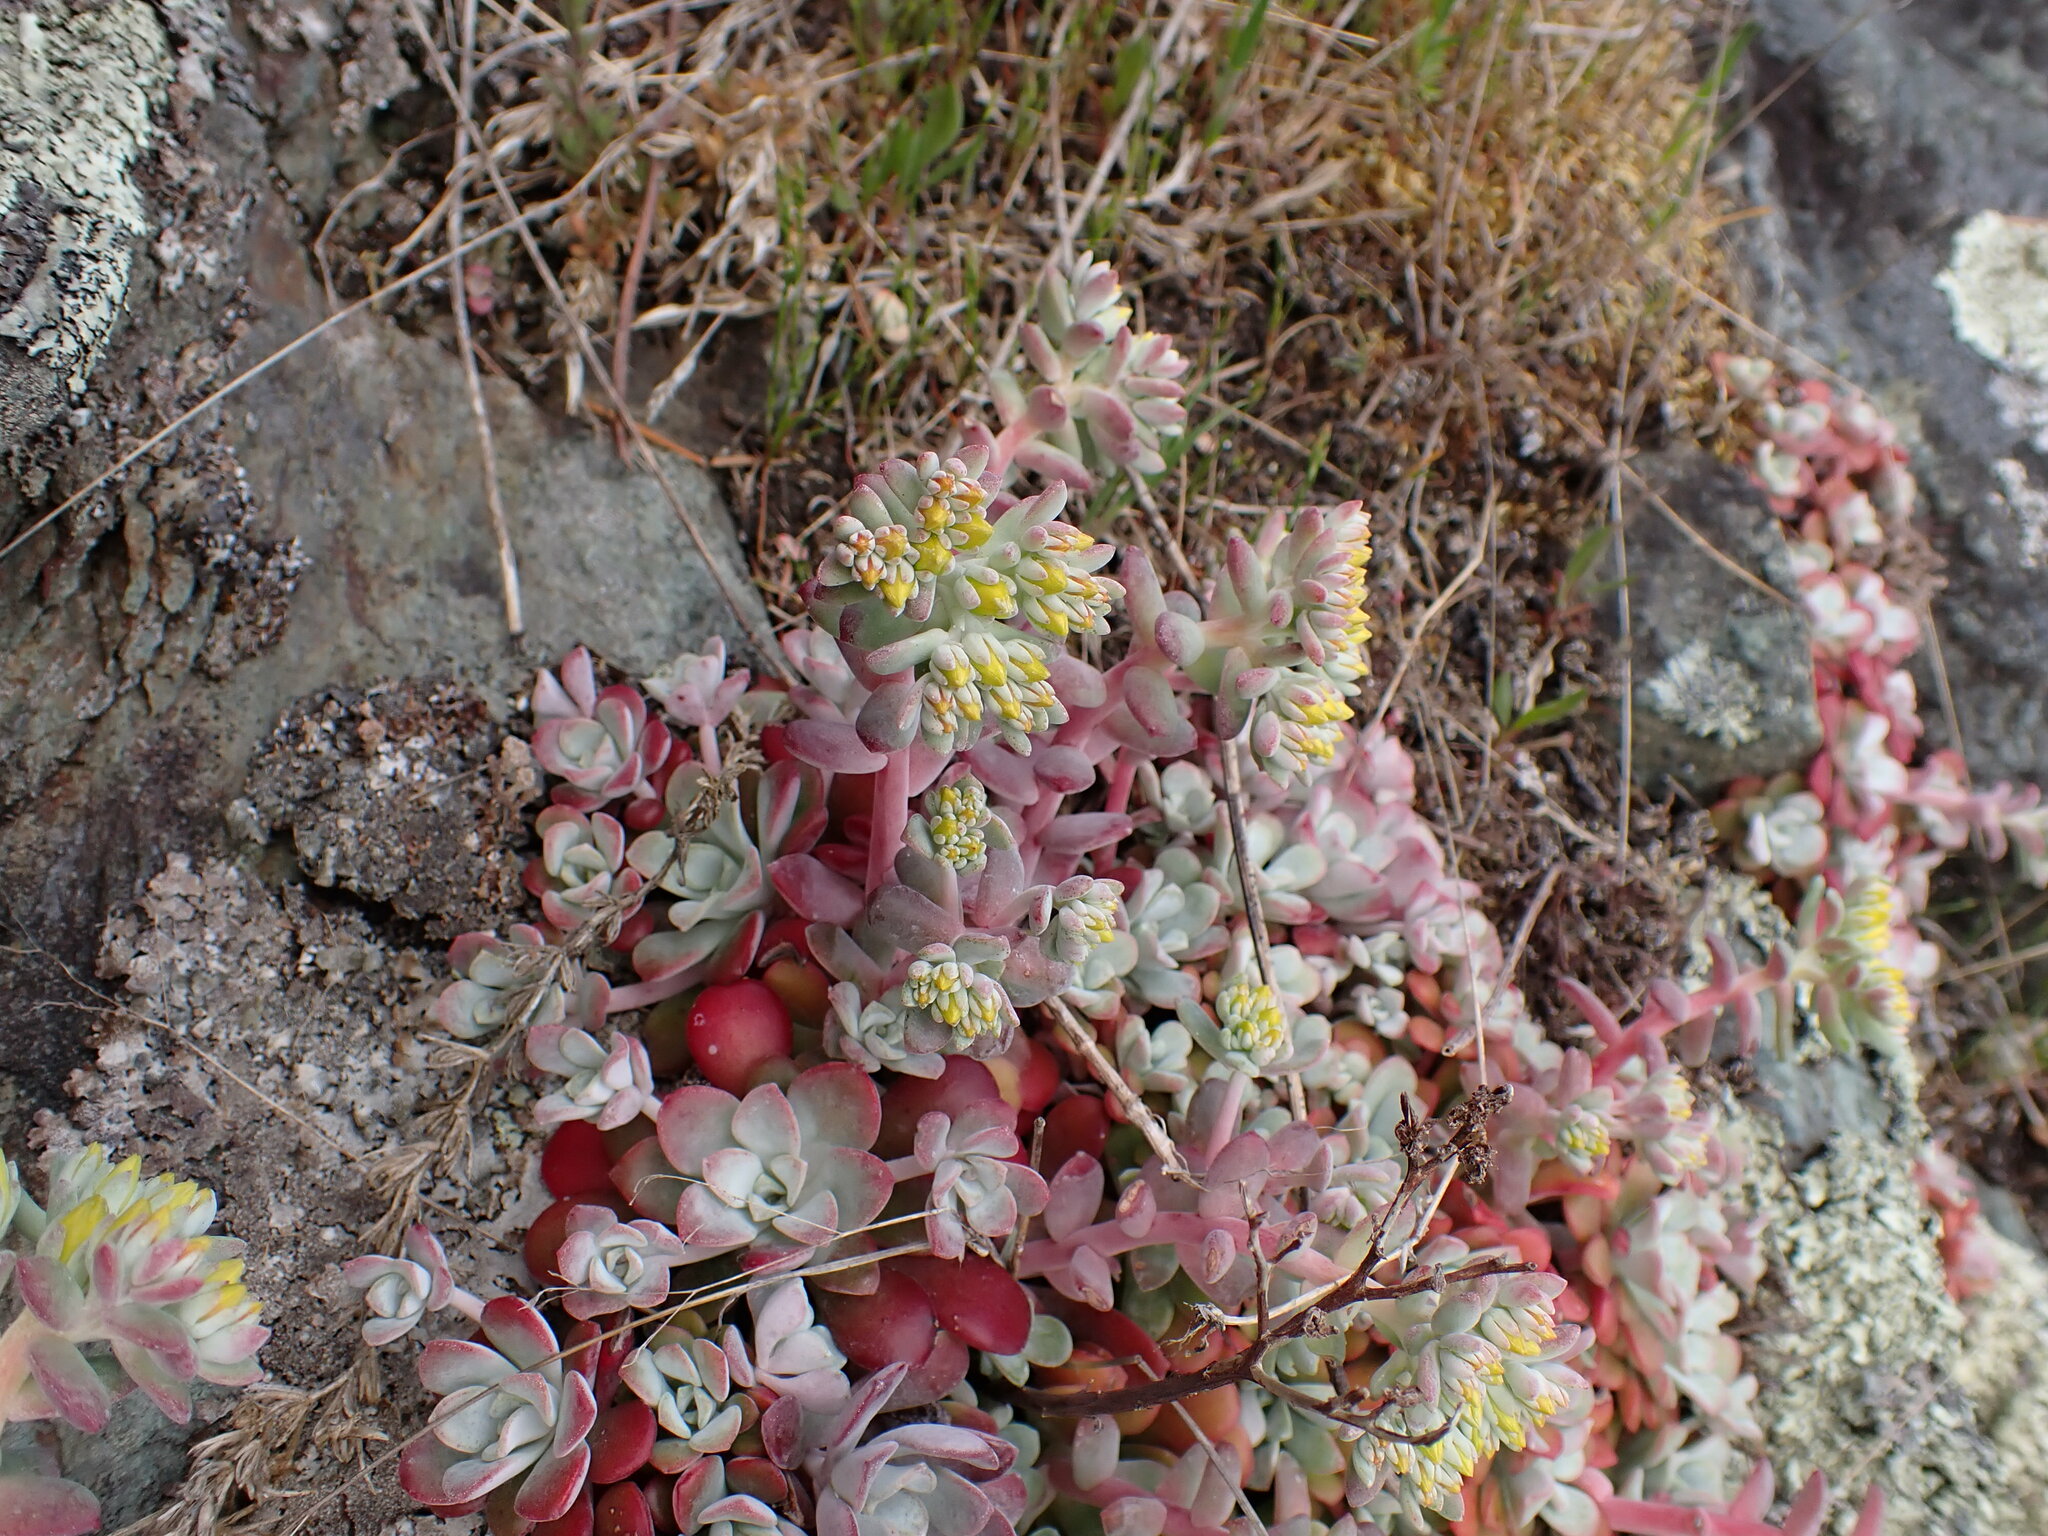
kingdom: Plantae
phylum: Tracheophyta
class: Magnoliopsida
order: Saxifragales
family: Crassulaceae
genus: Sedum
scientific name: Sedum spathulifolium
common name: Colorado stonecrop
